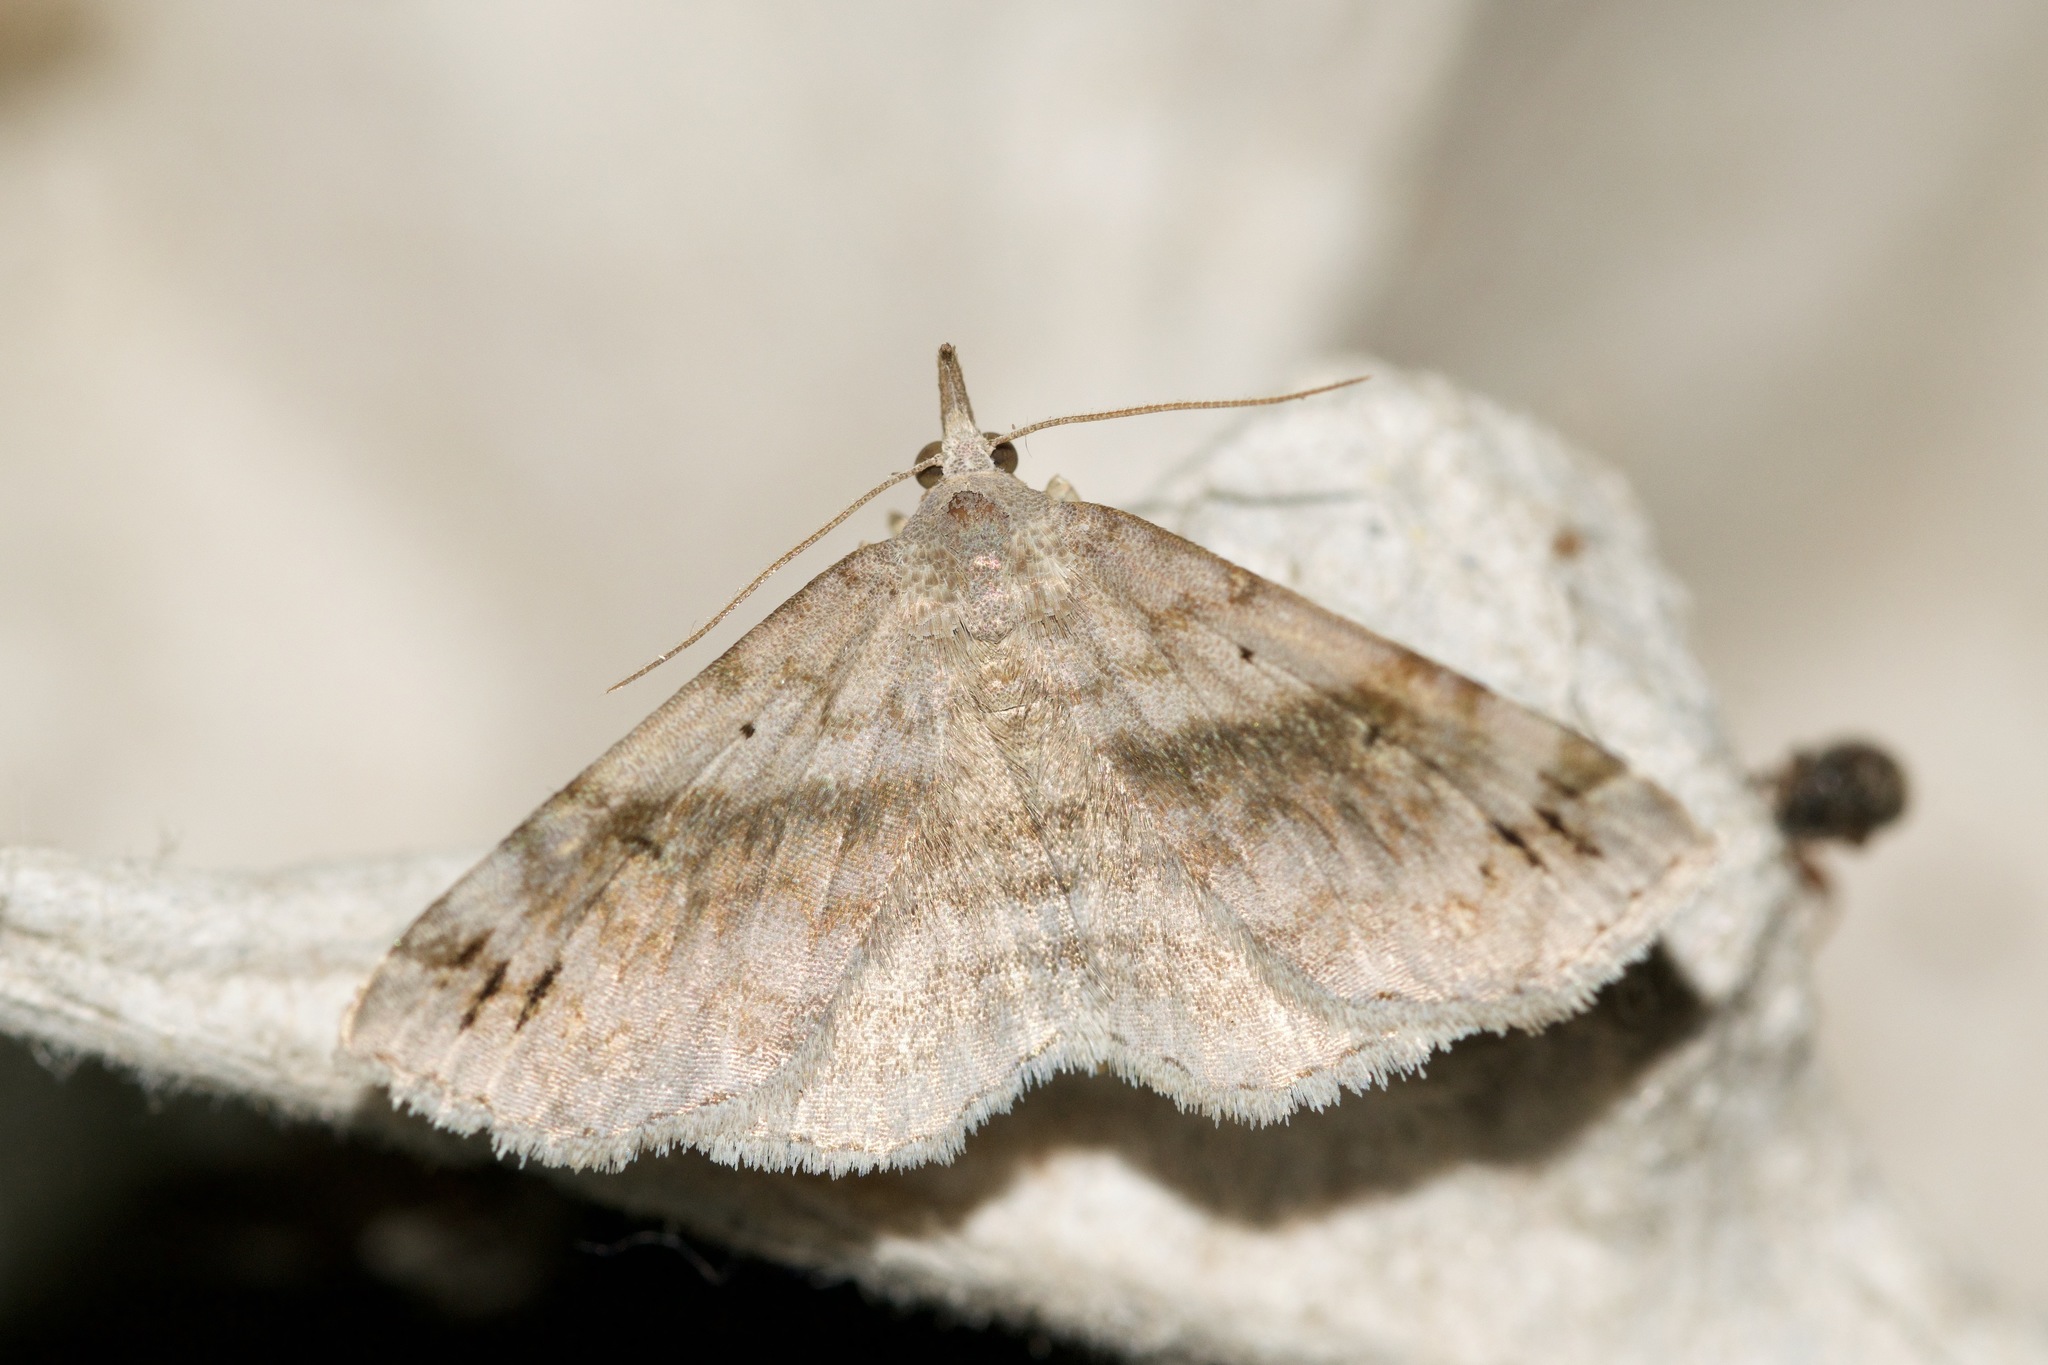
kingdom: Animalia
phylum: Arthropoda
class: Insecta
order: Lepidoptera
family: Erebidae
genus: Spargaloma
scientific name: Spargaloma sexpunctata
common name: Six-spotted gray
